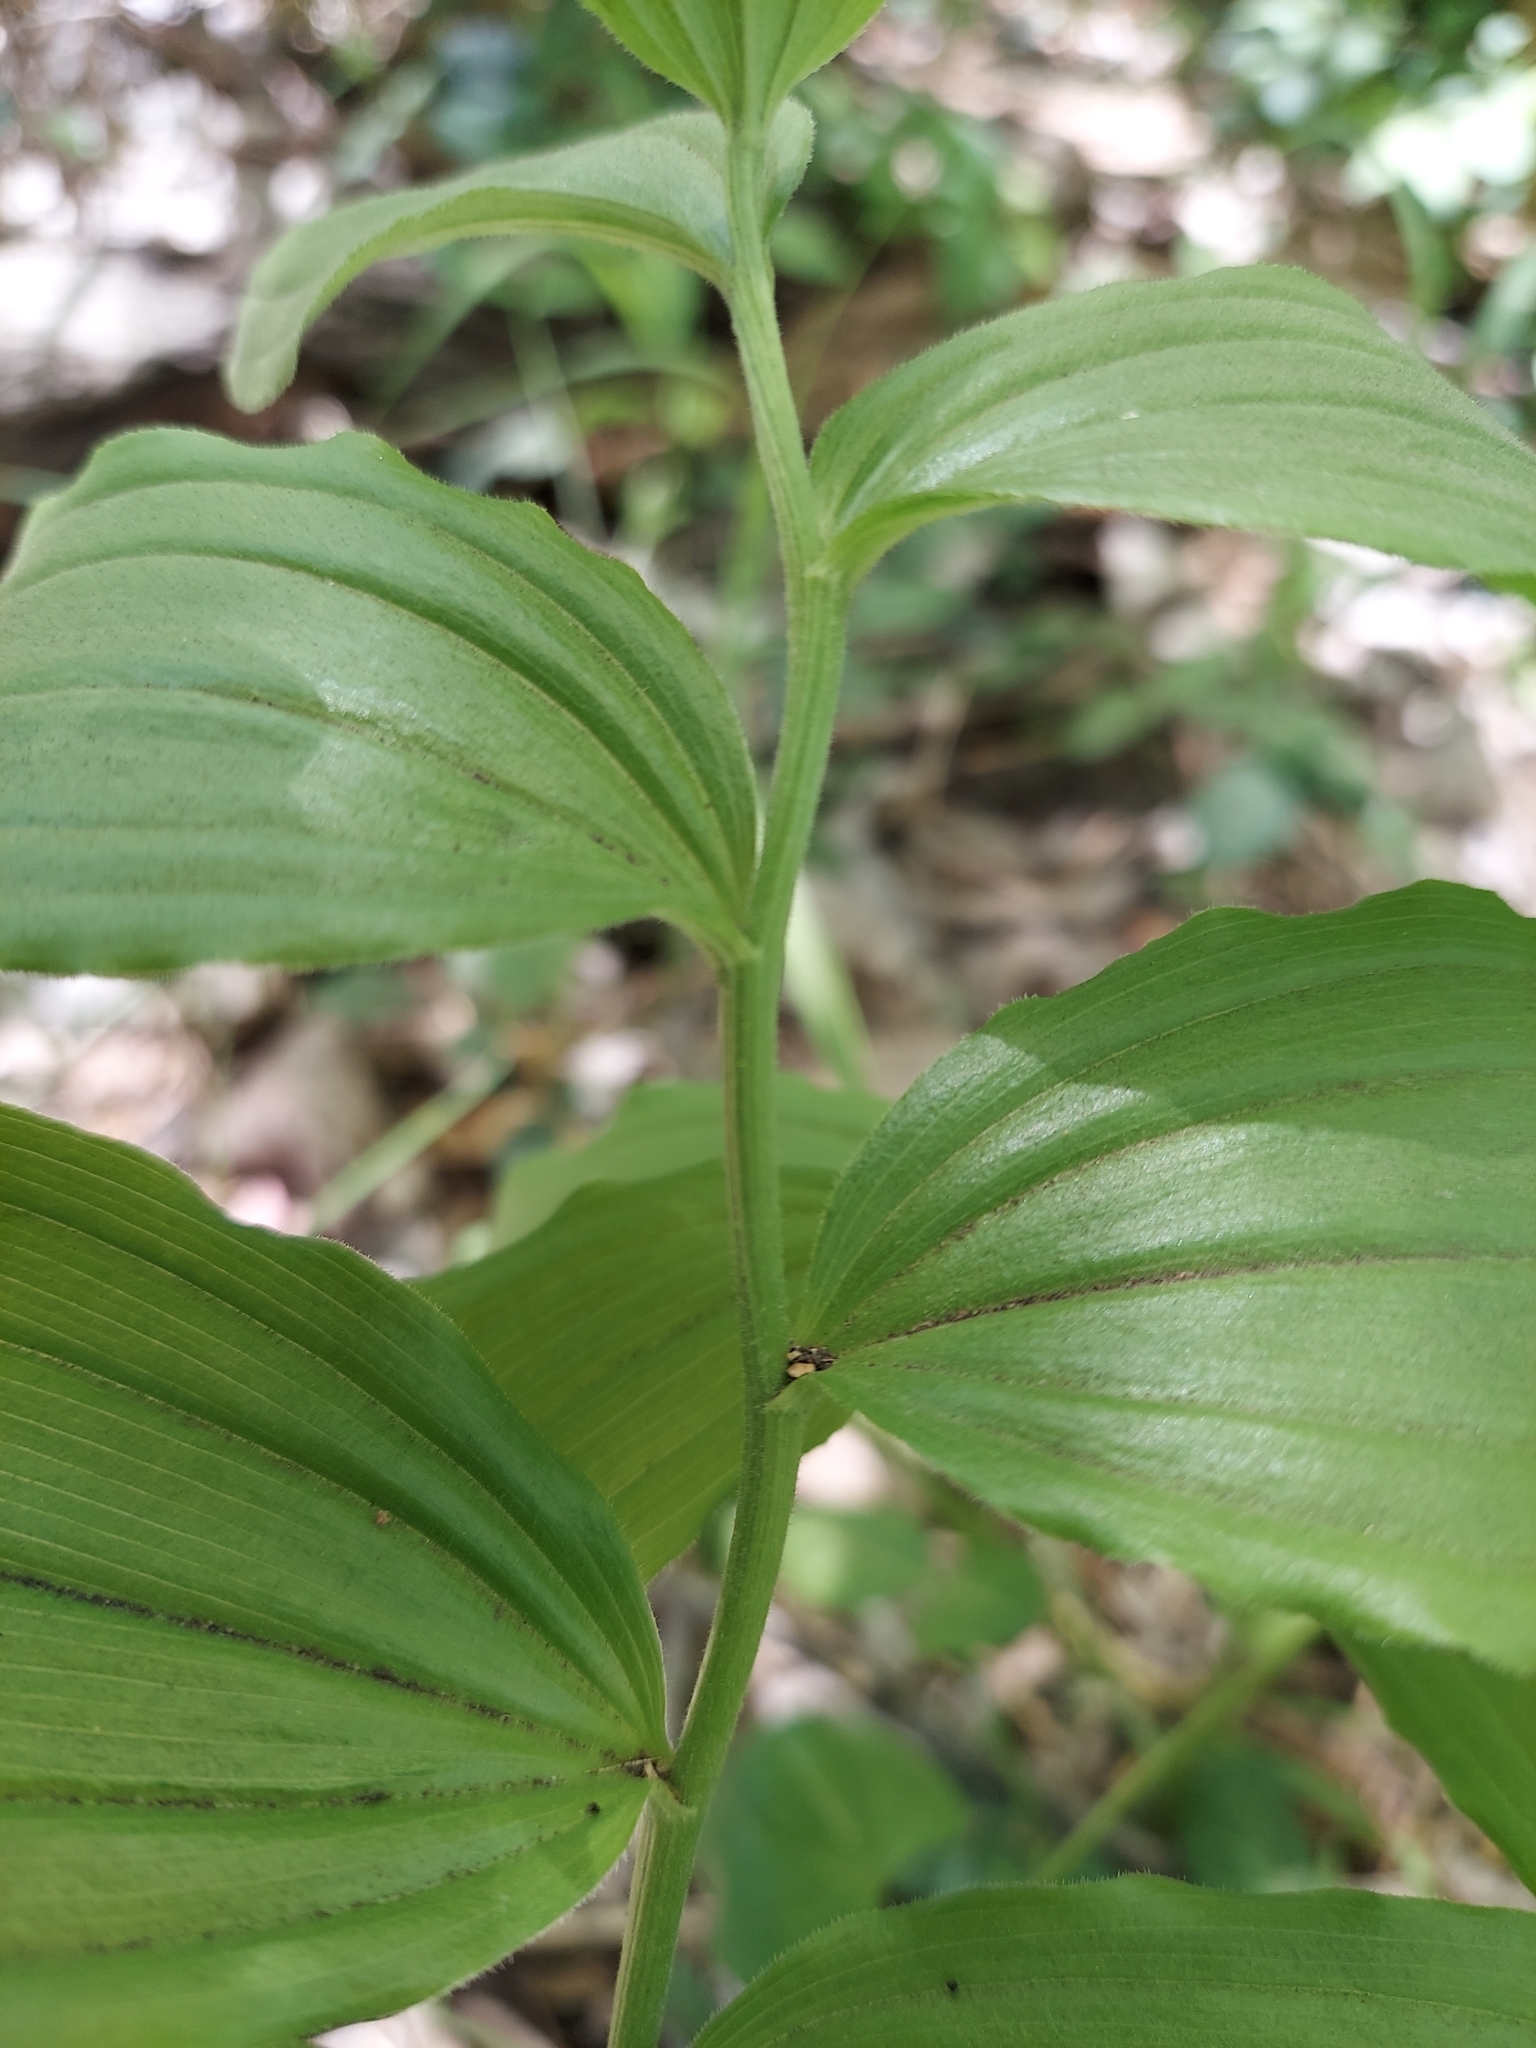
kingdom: Plantae
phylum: Tracheophyta
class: Liliopsida
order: Asparagales
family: Asparagaceae
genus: Maianthemum
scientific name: Maianthemum racemosum
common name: False spikenard
